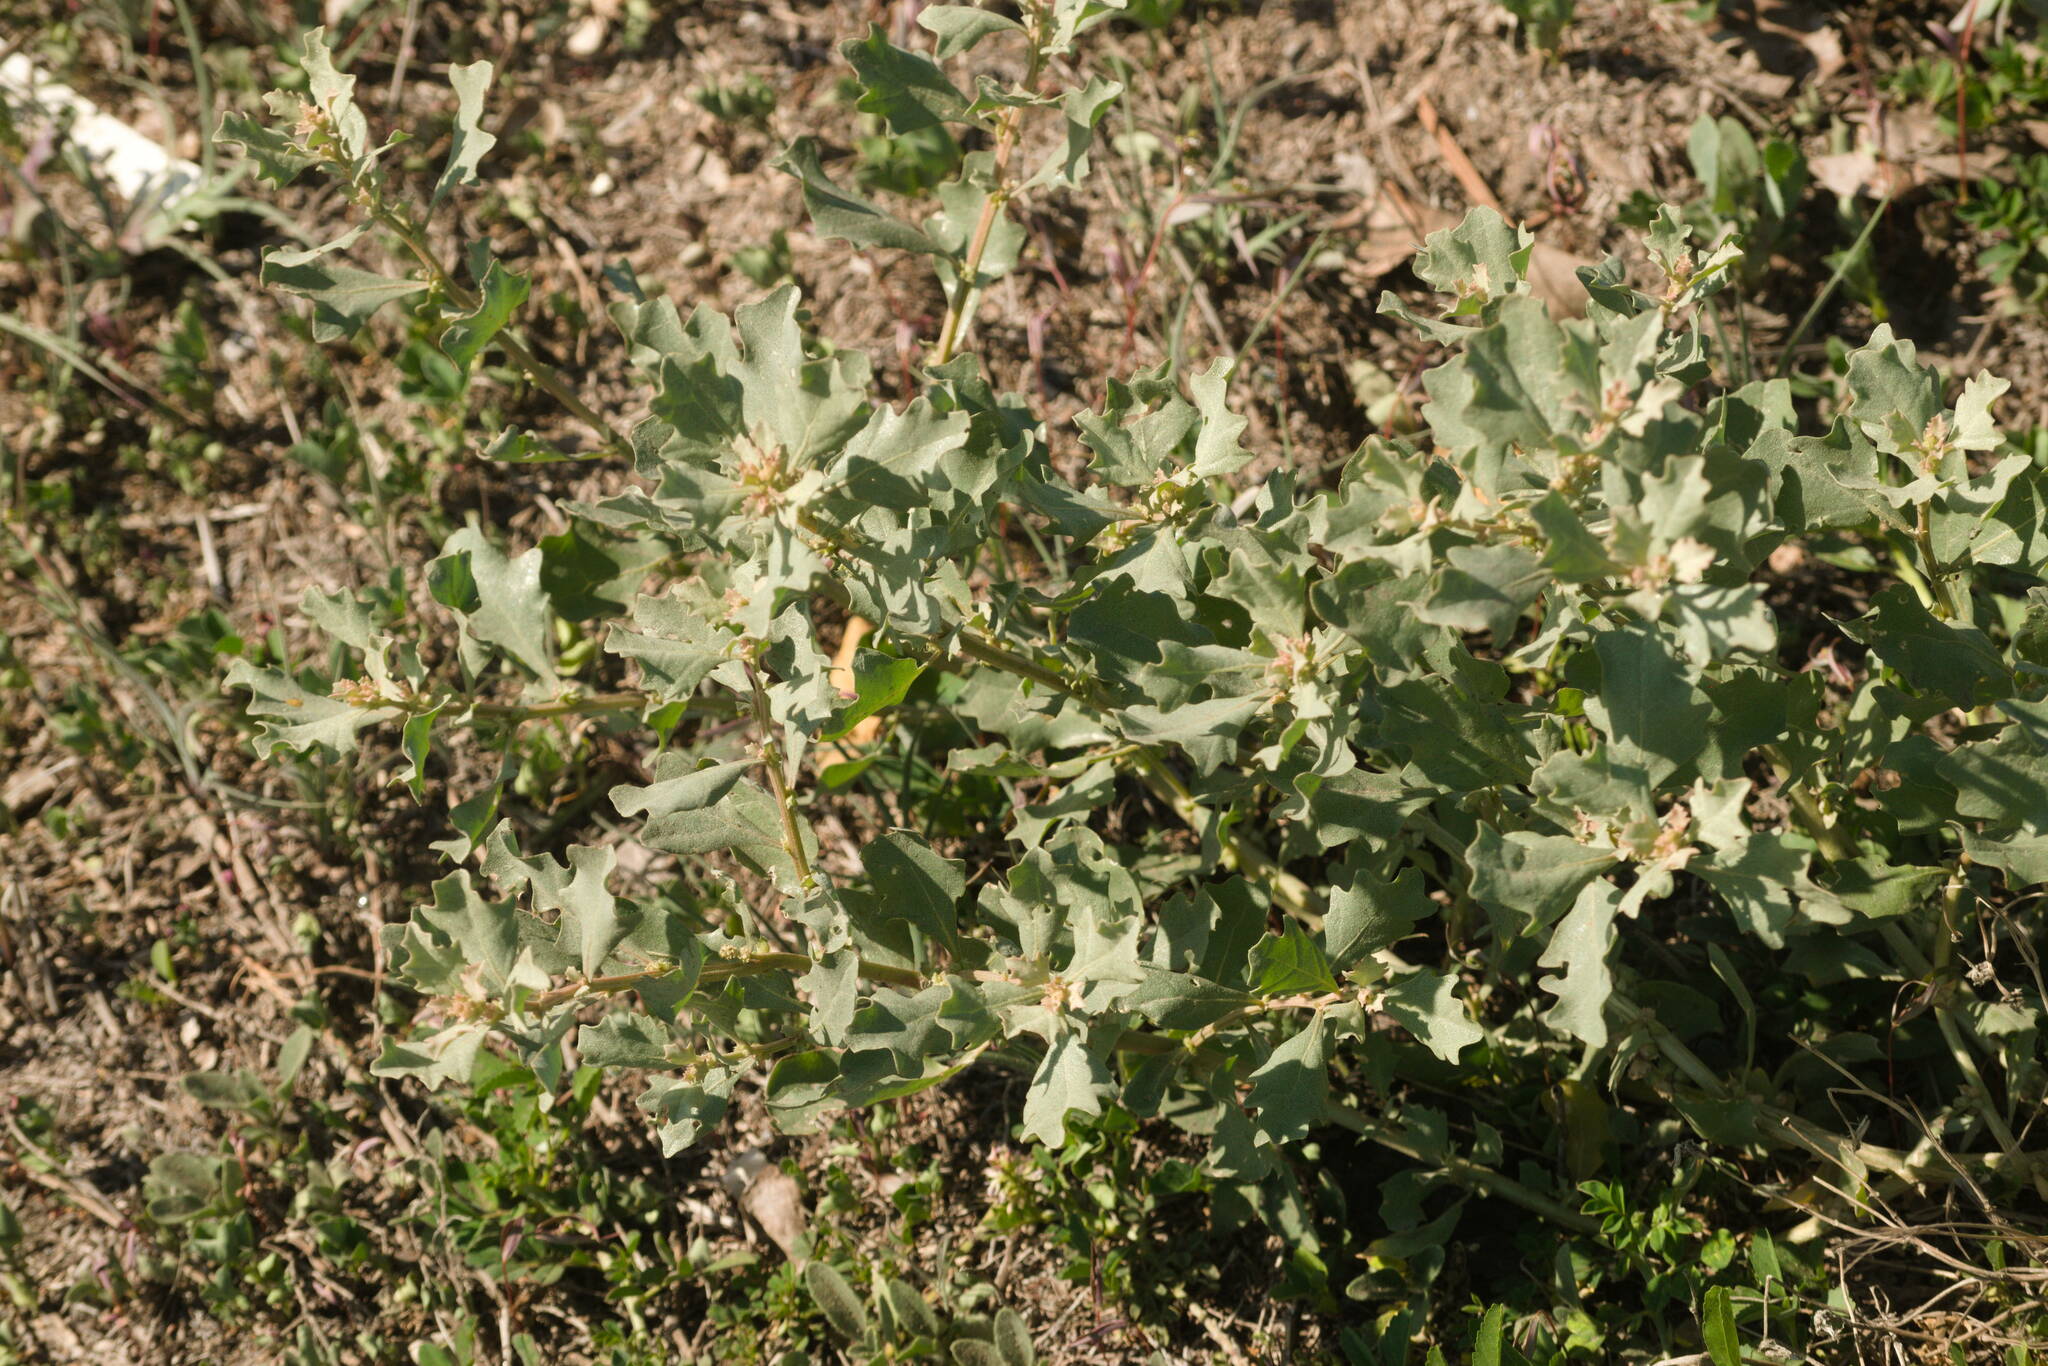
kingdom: Plantae
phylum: Tracheophyta
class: Magnoliopsida
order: Caryophyllales
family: Amaranthaceae
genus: Atriplex
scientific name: Atriplex muelleri
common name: Mueller's saltbush
